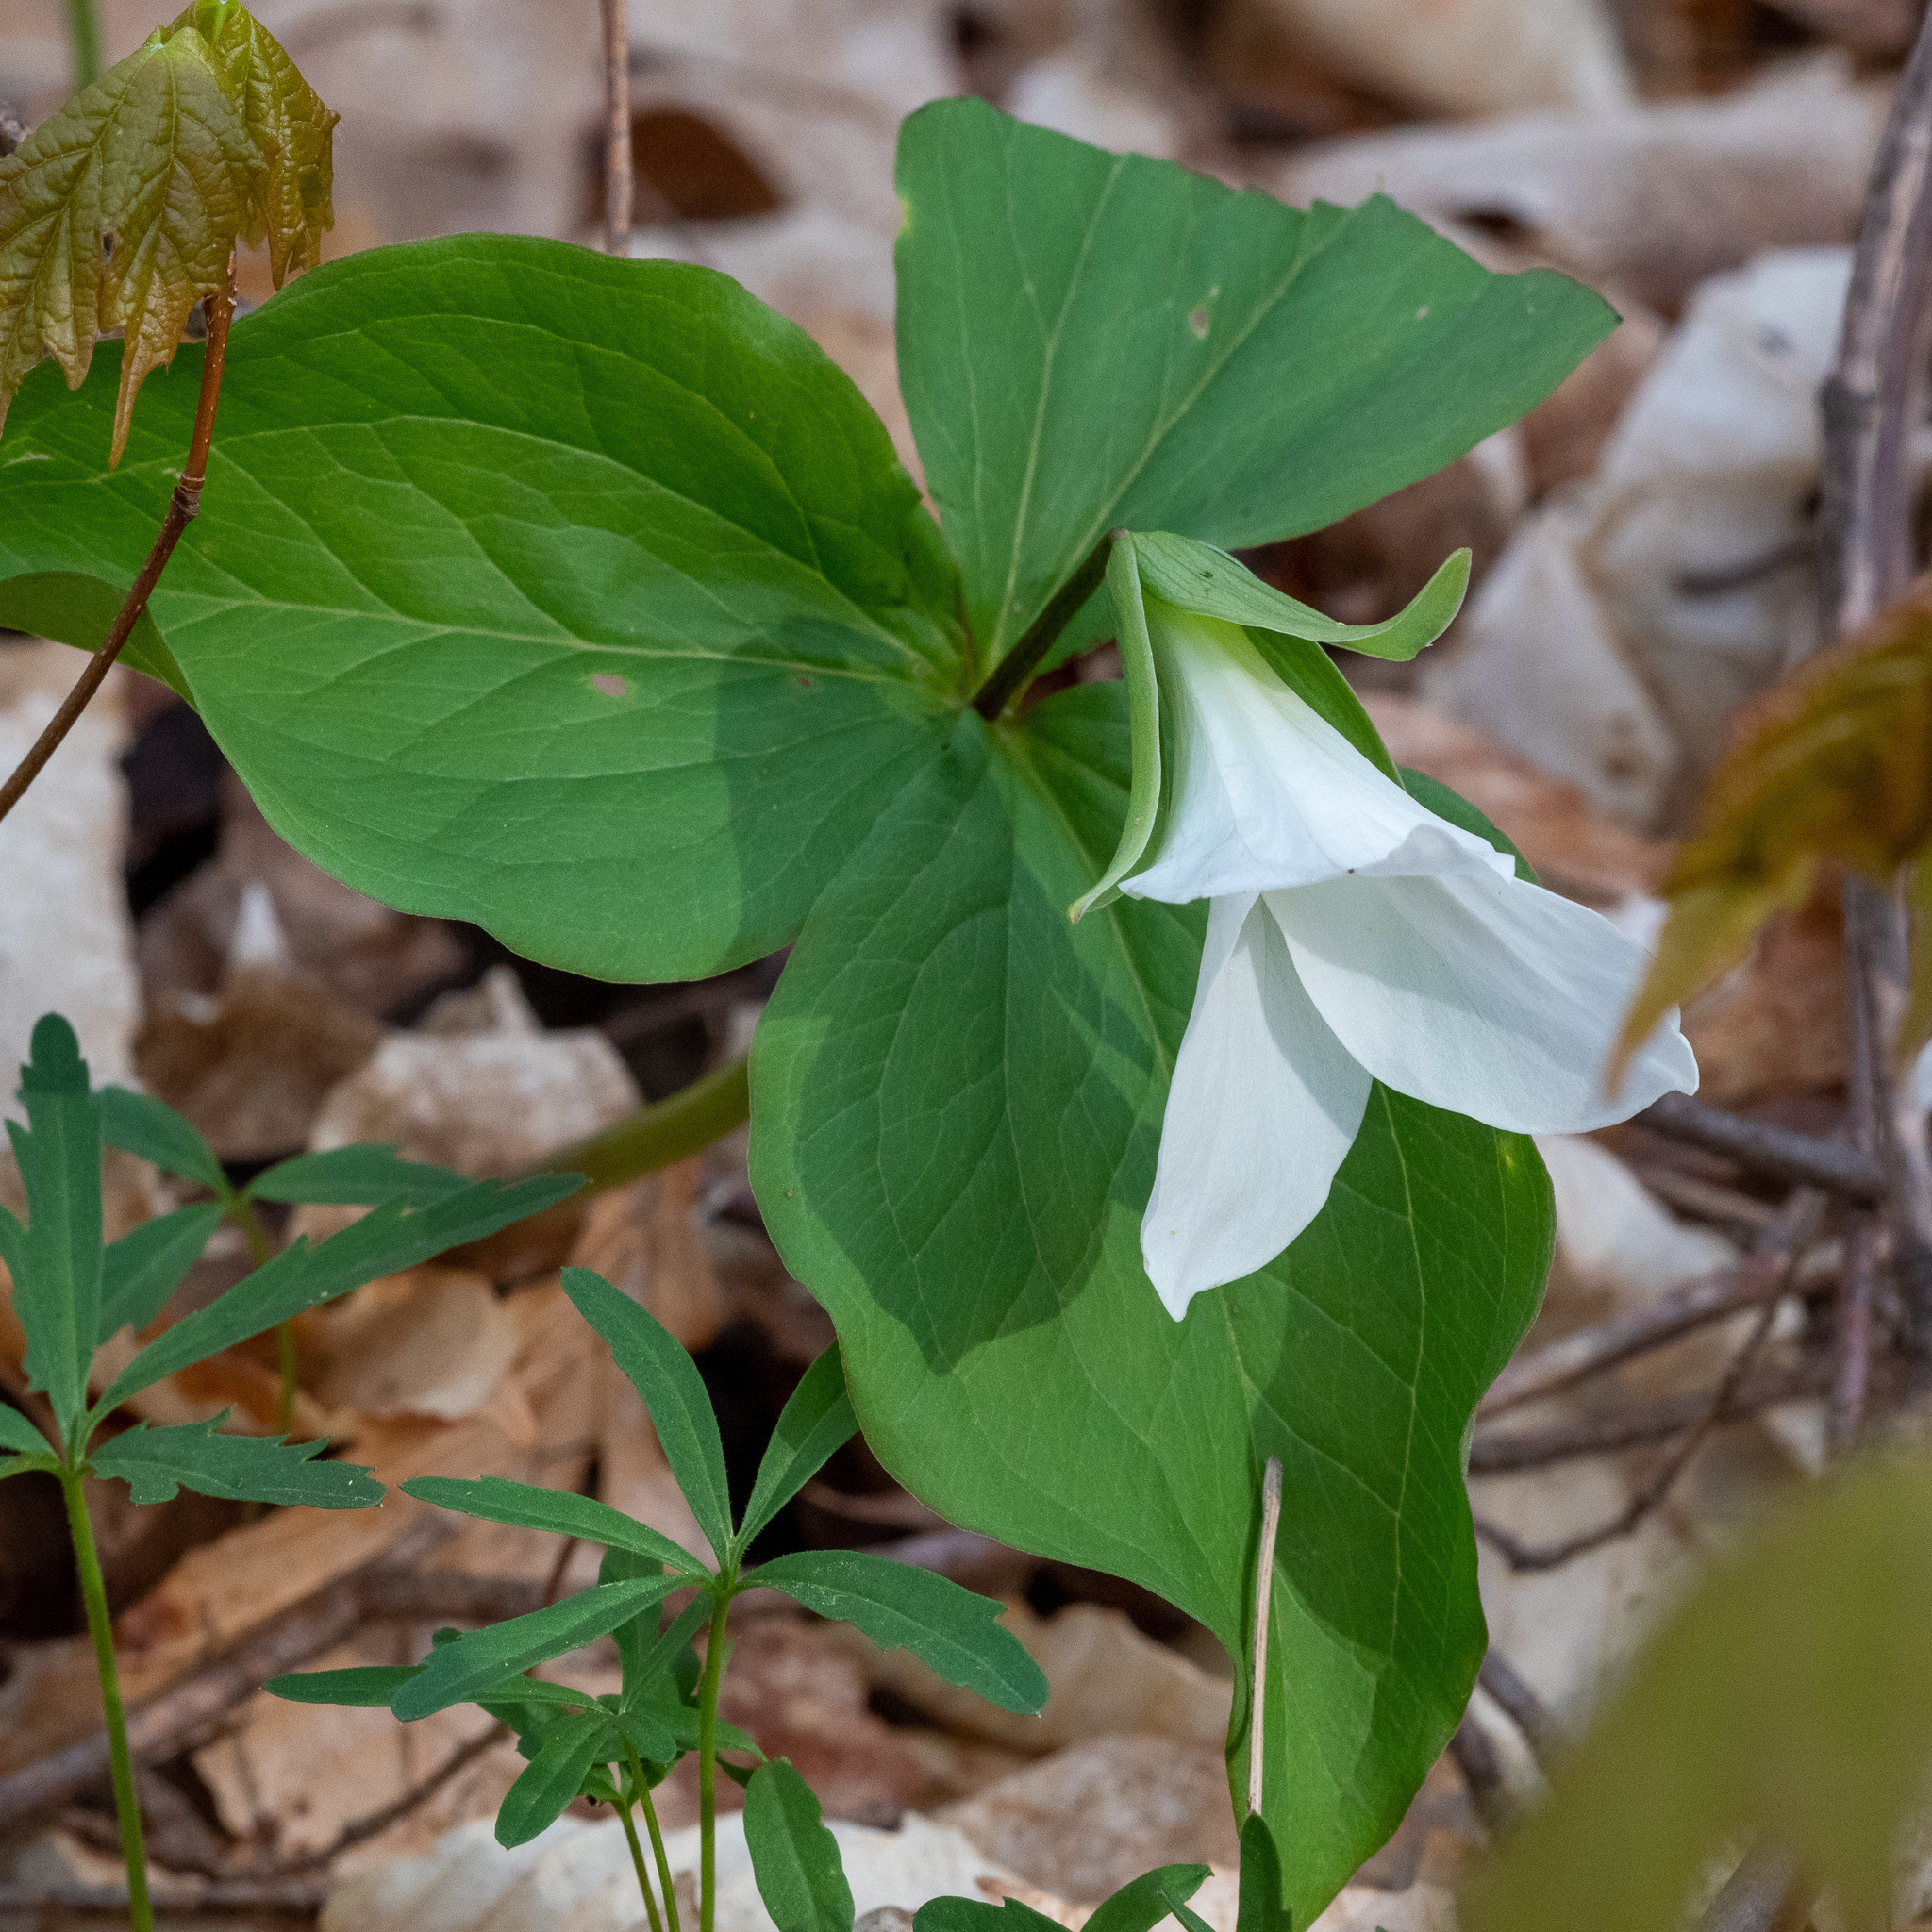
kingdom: Plantae
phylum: Tracheophyta
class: Liliopsida
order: Liliales
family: Melanthiaceae
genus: Trillium
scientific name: Trillium grandiflorum
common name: Great white trillium
